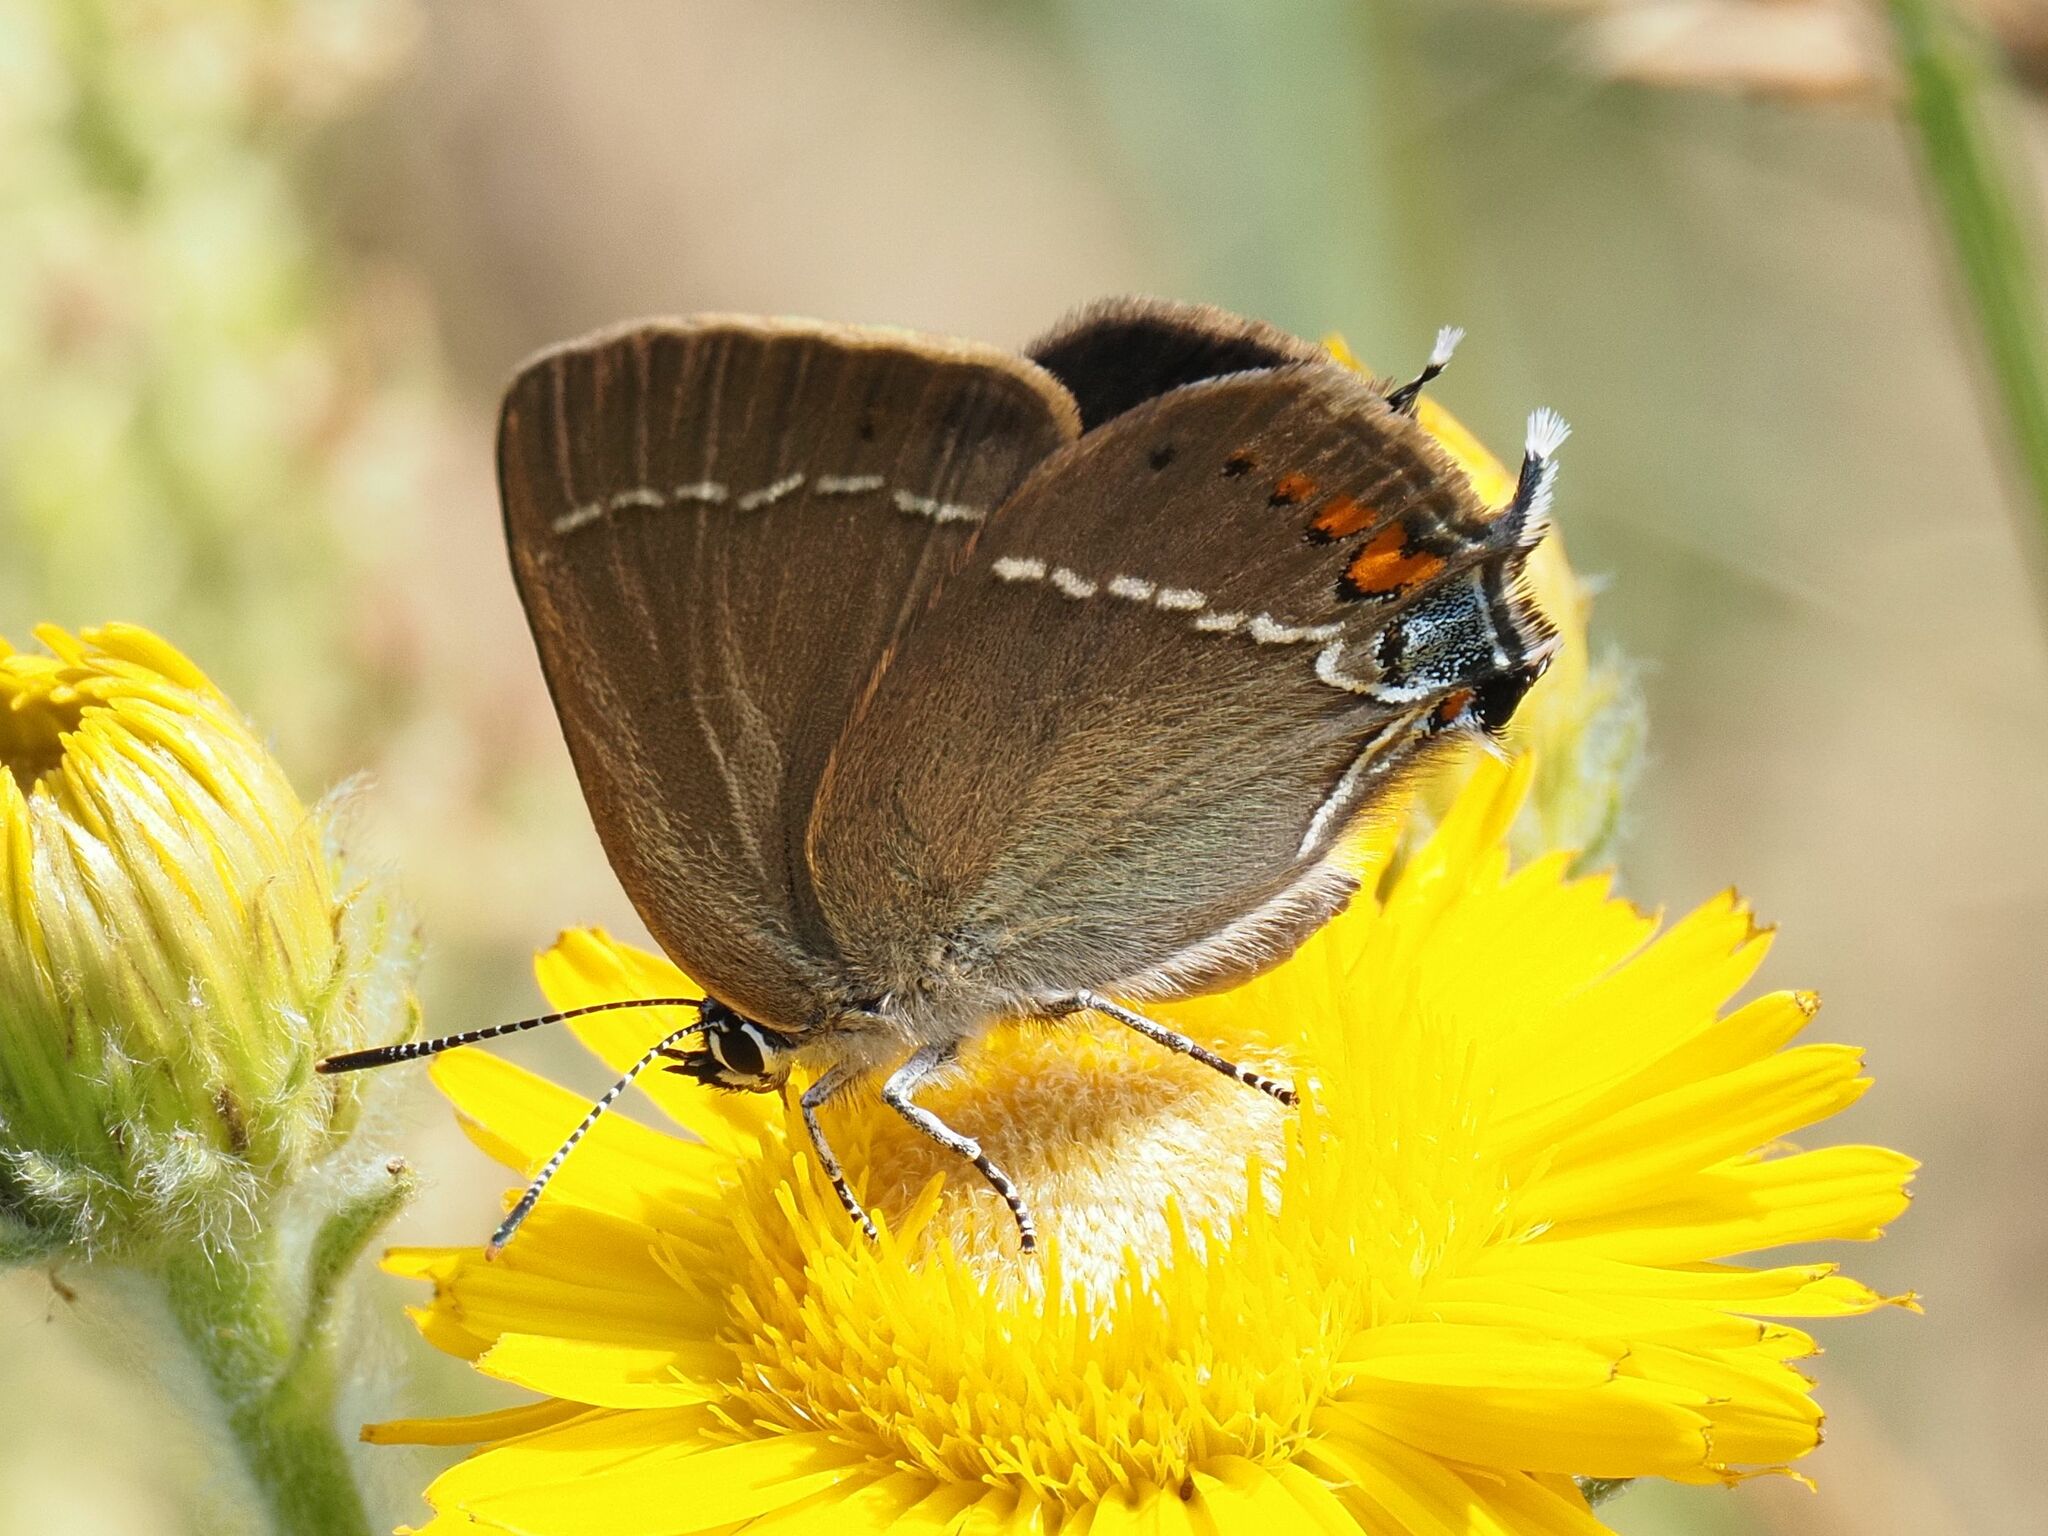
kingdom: Animalia
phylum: Arthropoda
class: Insecta
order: Lepidoptera
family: Lycaenidae
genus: Tuttiola
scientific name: Tuttiola spini
